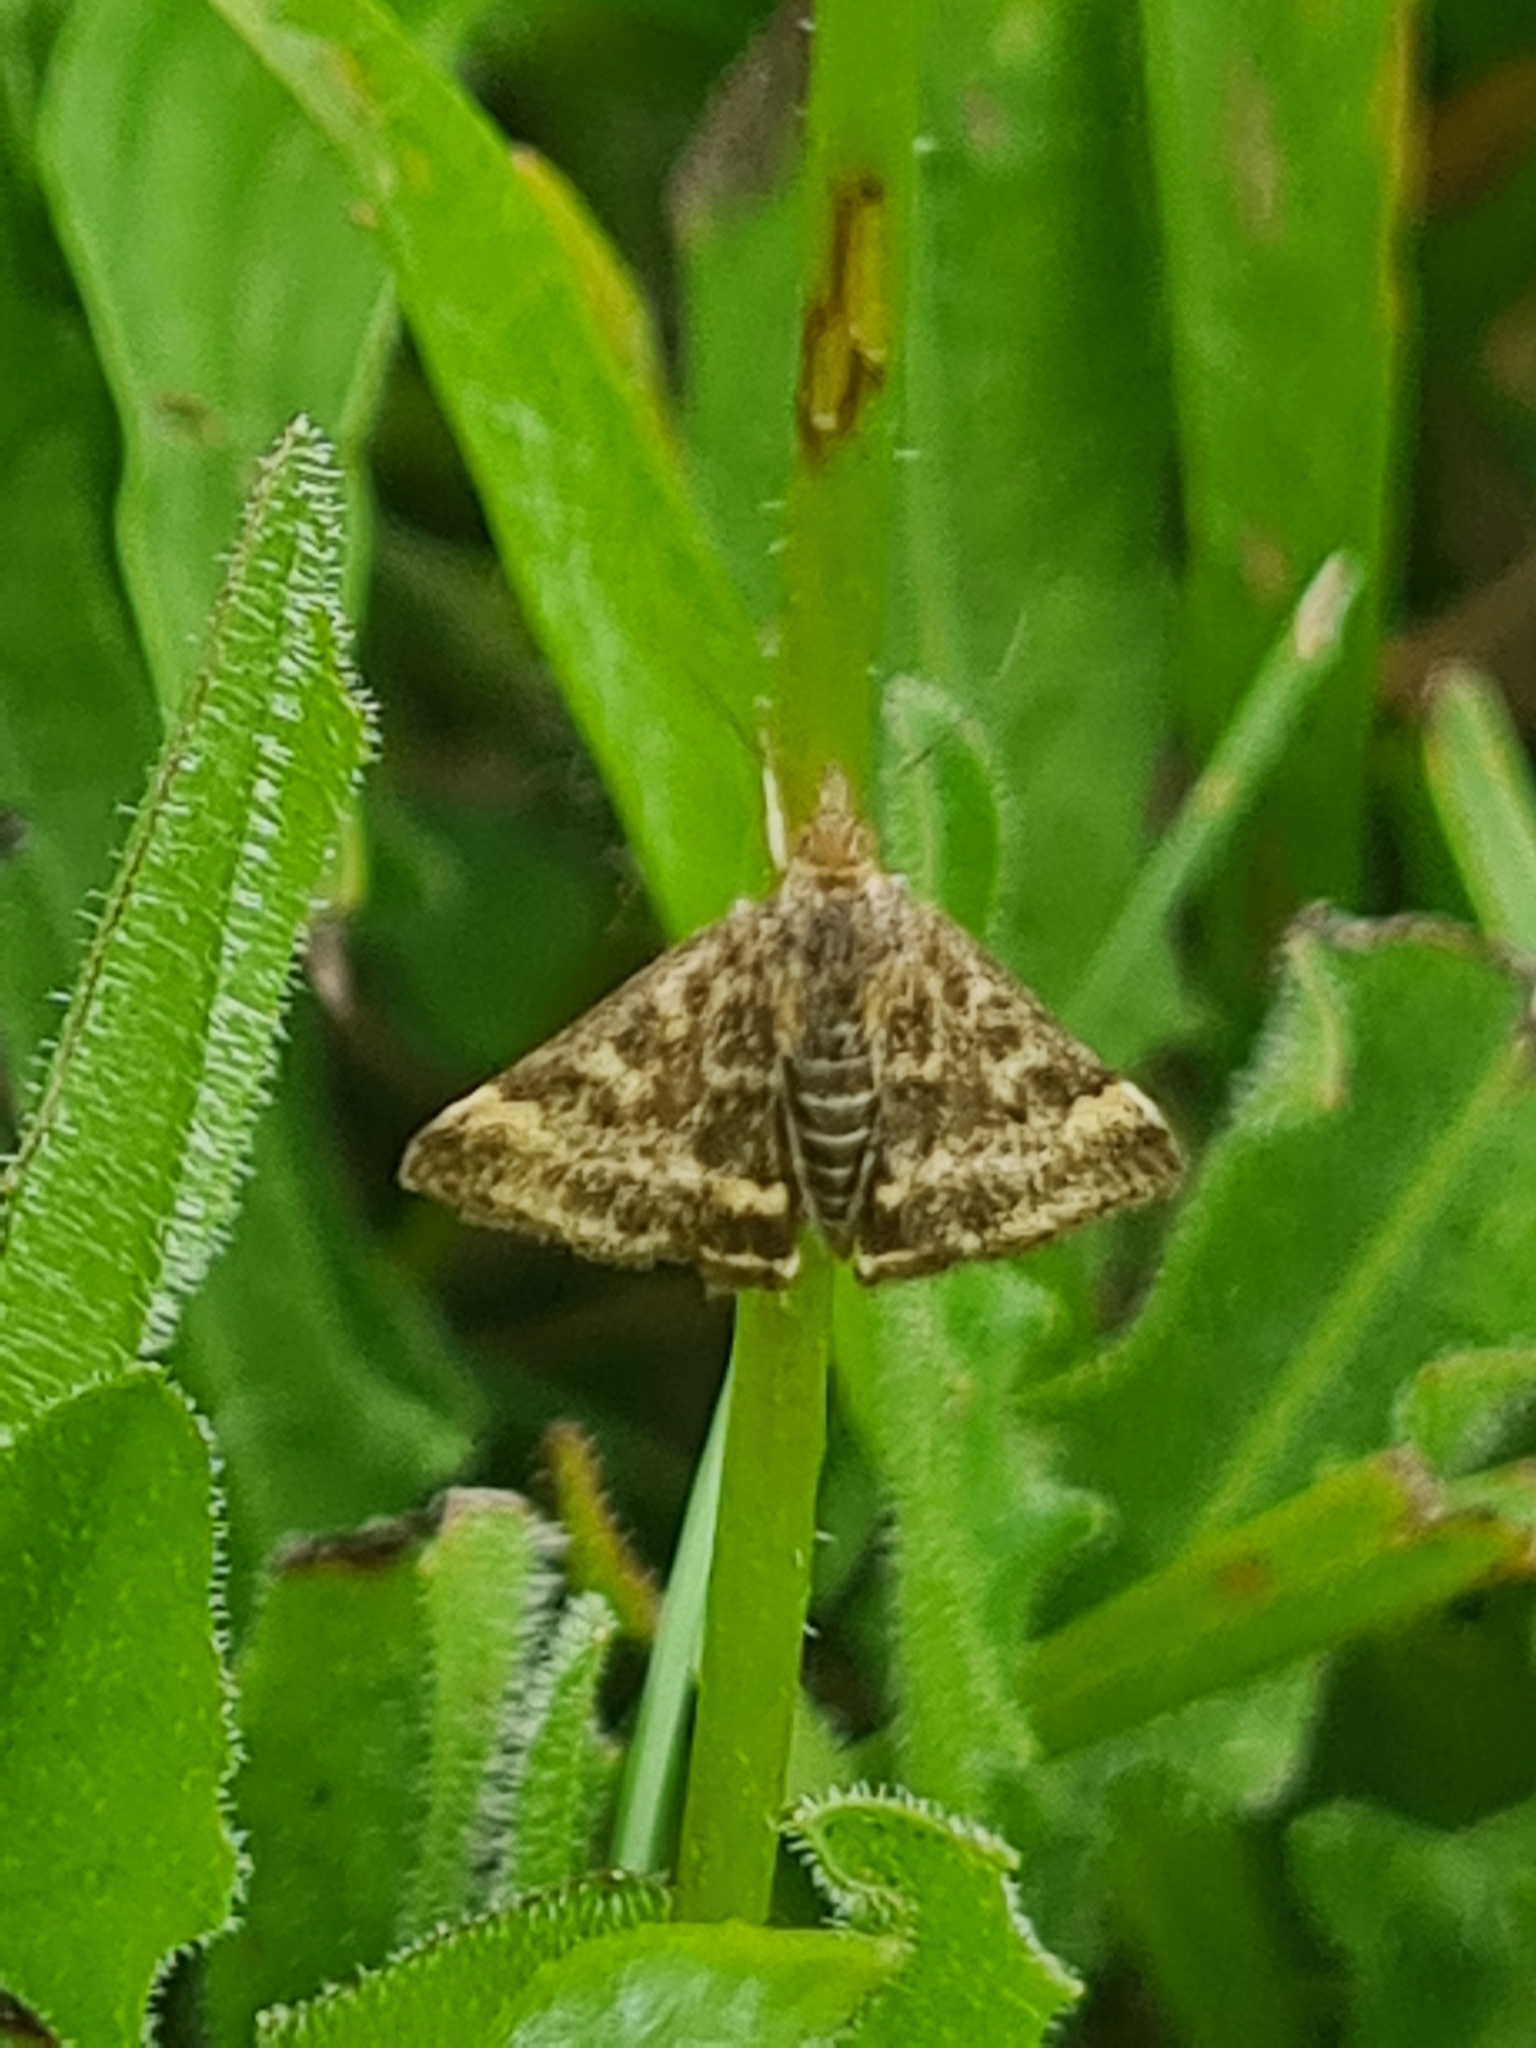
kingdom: Animalia
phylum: Arthropoda
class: Insecta
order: Lepidoptera
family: Crambidae
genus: Pyrausta
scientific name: Pyrausta despicata
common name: Straw-barred pearl
